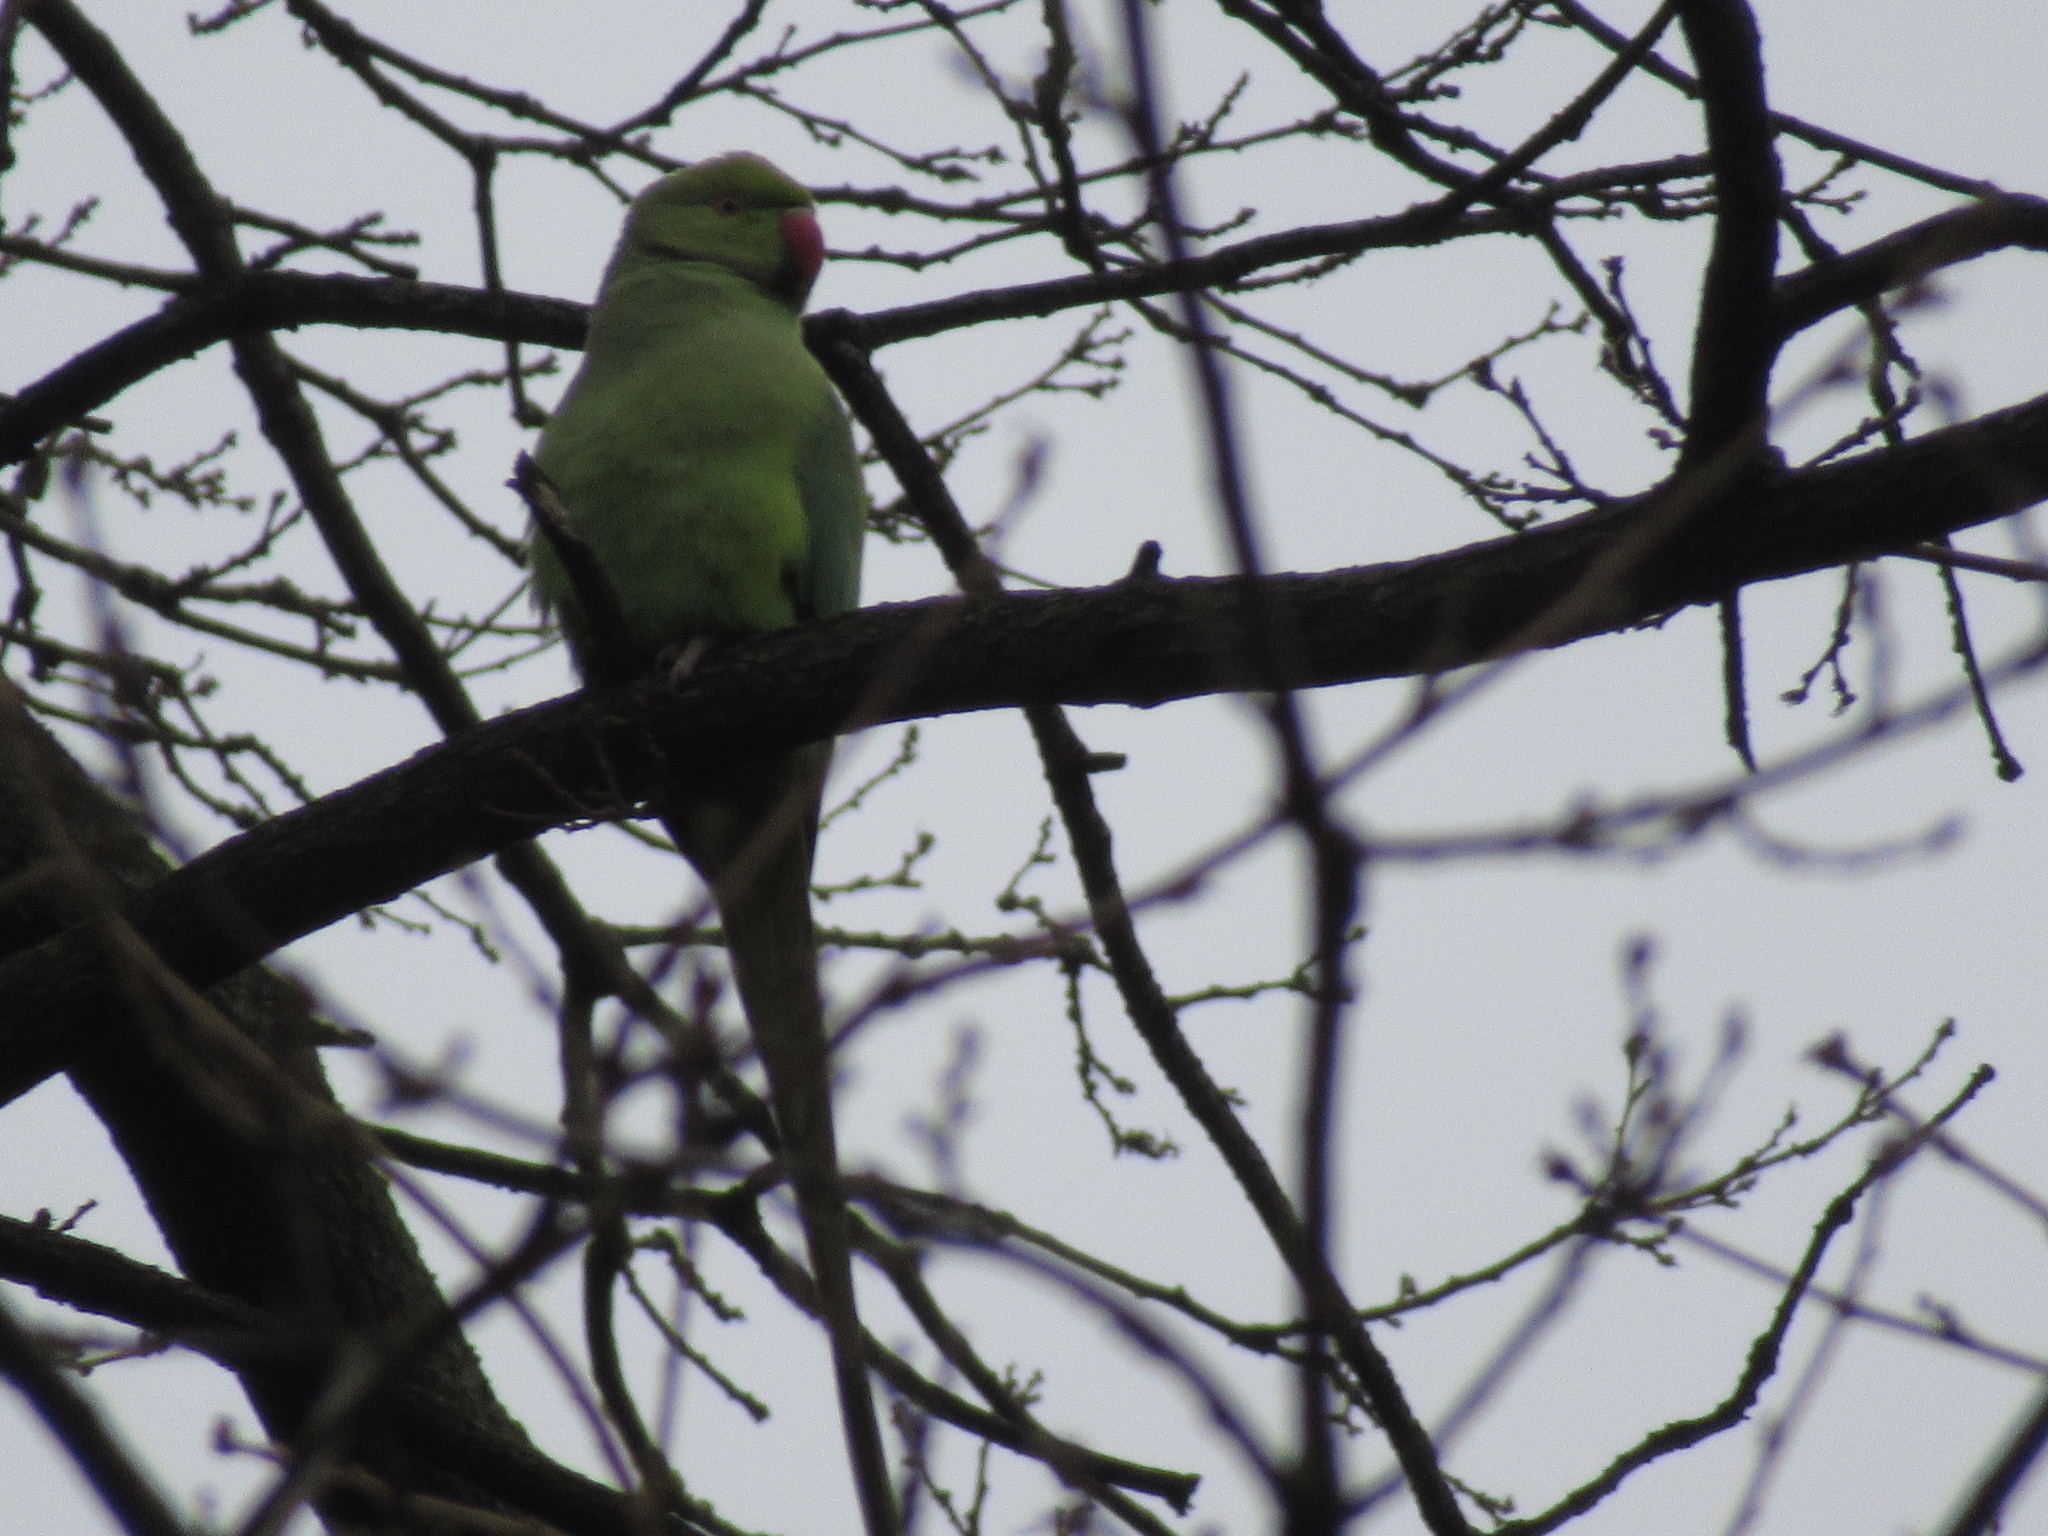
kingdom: Animalia
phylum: Chordata
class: Aves
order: Psittaciformes
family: Psittacidae
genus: Psittacula
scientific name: Psittacula krameri
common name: Rose-ringed parakeet
